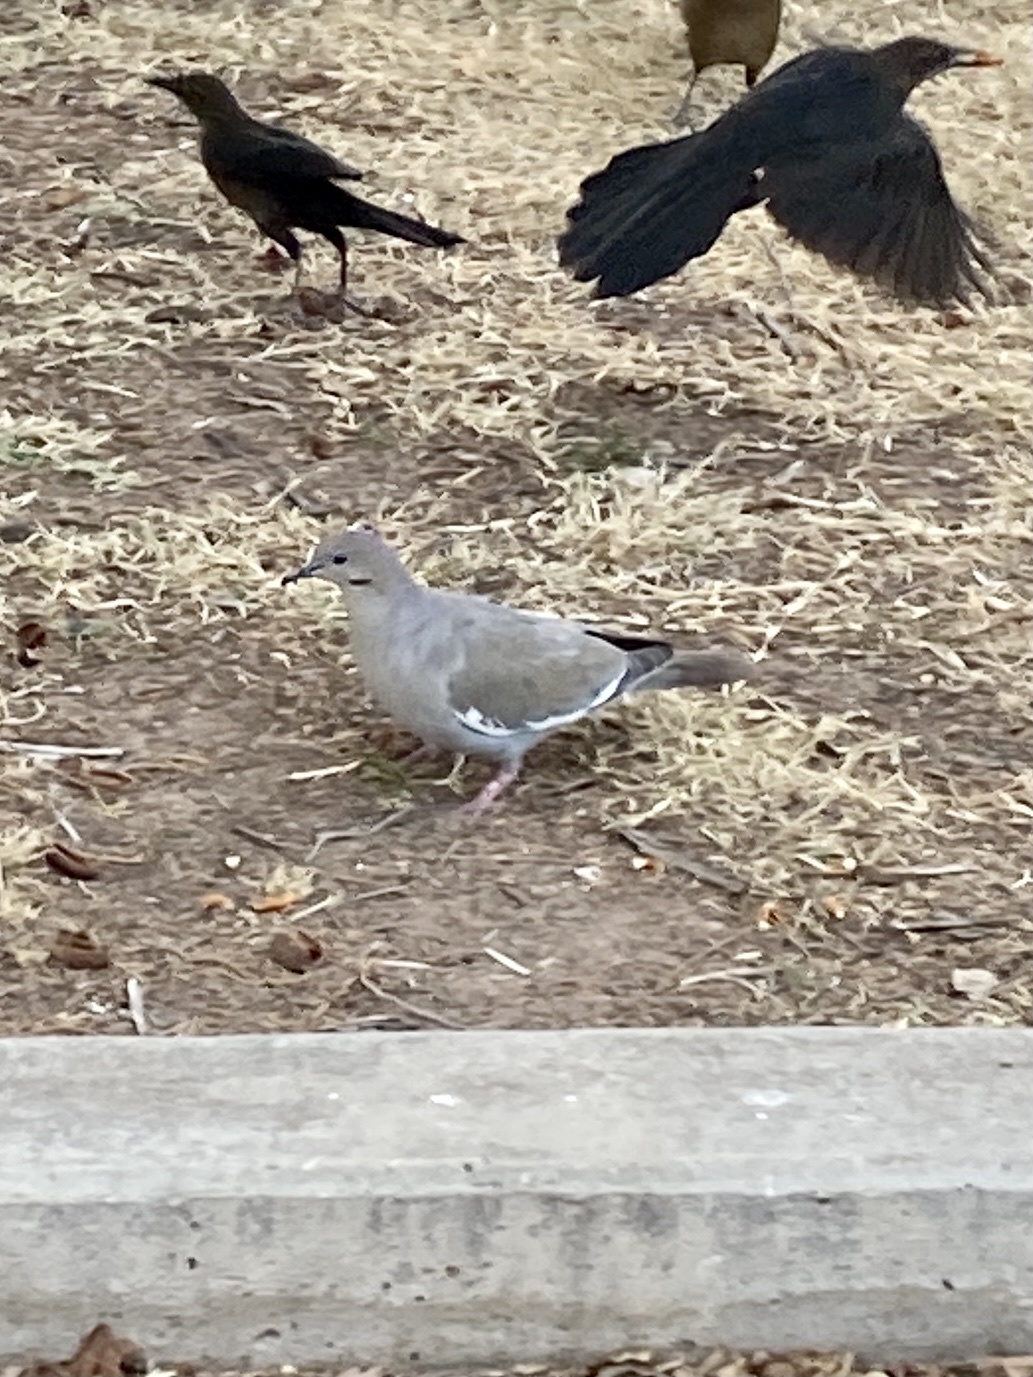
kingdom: Animalia
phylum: Chordata
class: Aves
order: Columbiformes
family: Columbidae
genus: Zenaida
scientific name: Zenaida asiatica
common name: White-winged dove
